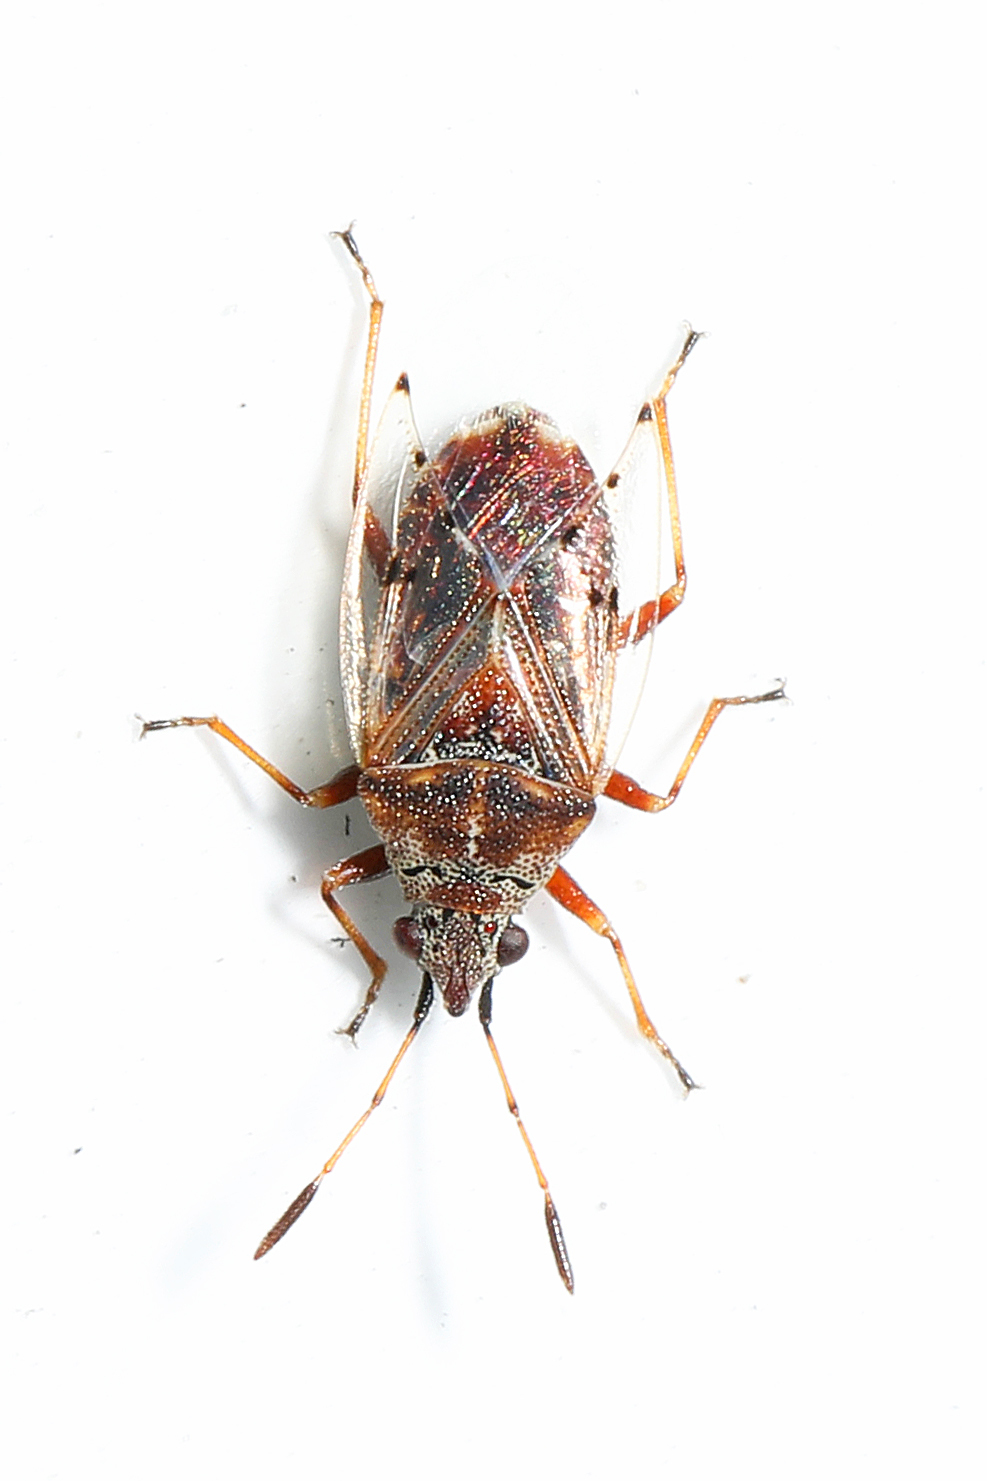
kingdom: Animalia
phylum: Arthropoda
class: Insecta
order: Hemiptera
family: Lygaeidae
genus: Kleidocerys
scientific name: Kleidocerys resedae
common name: Birch catkin bug
